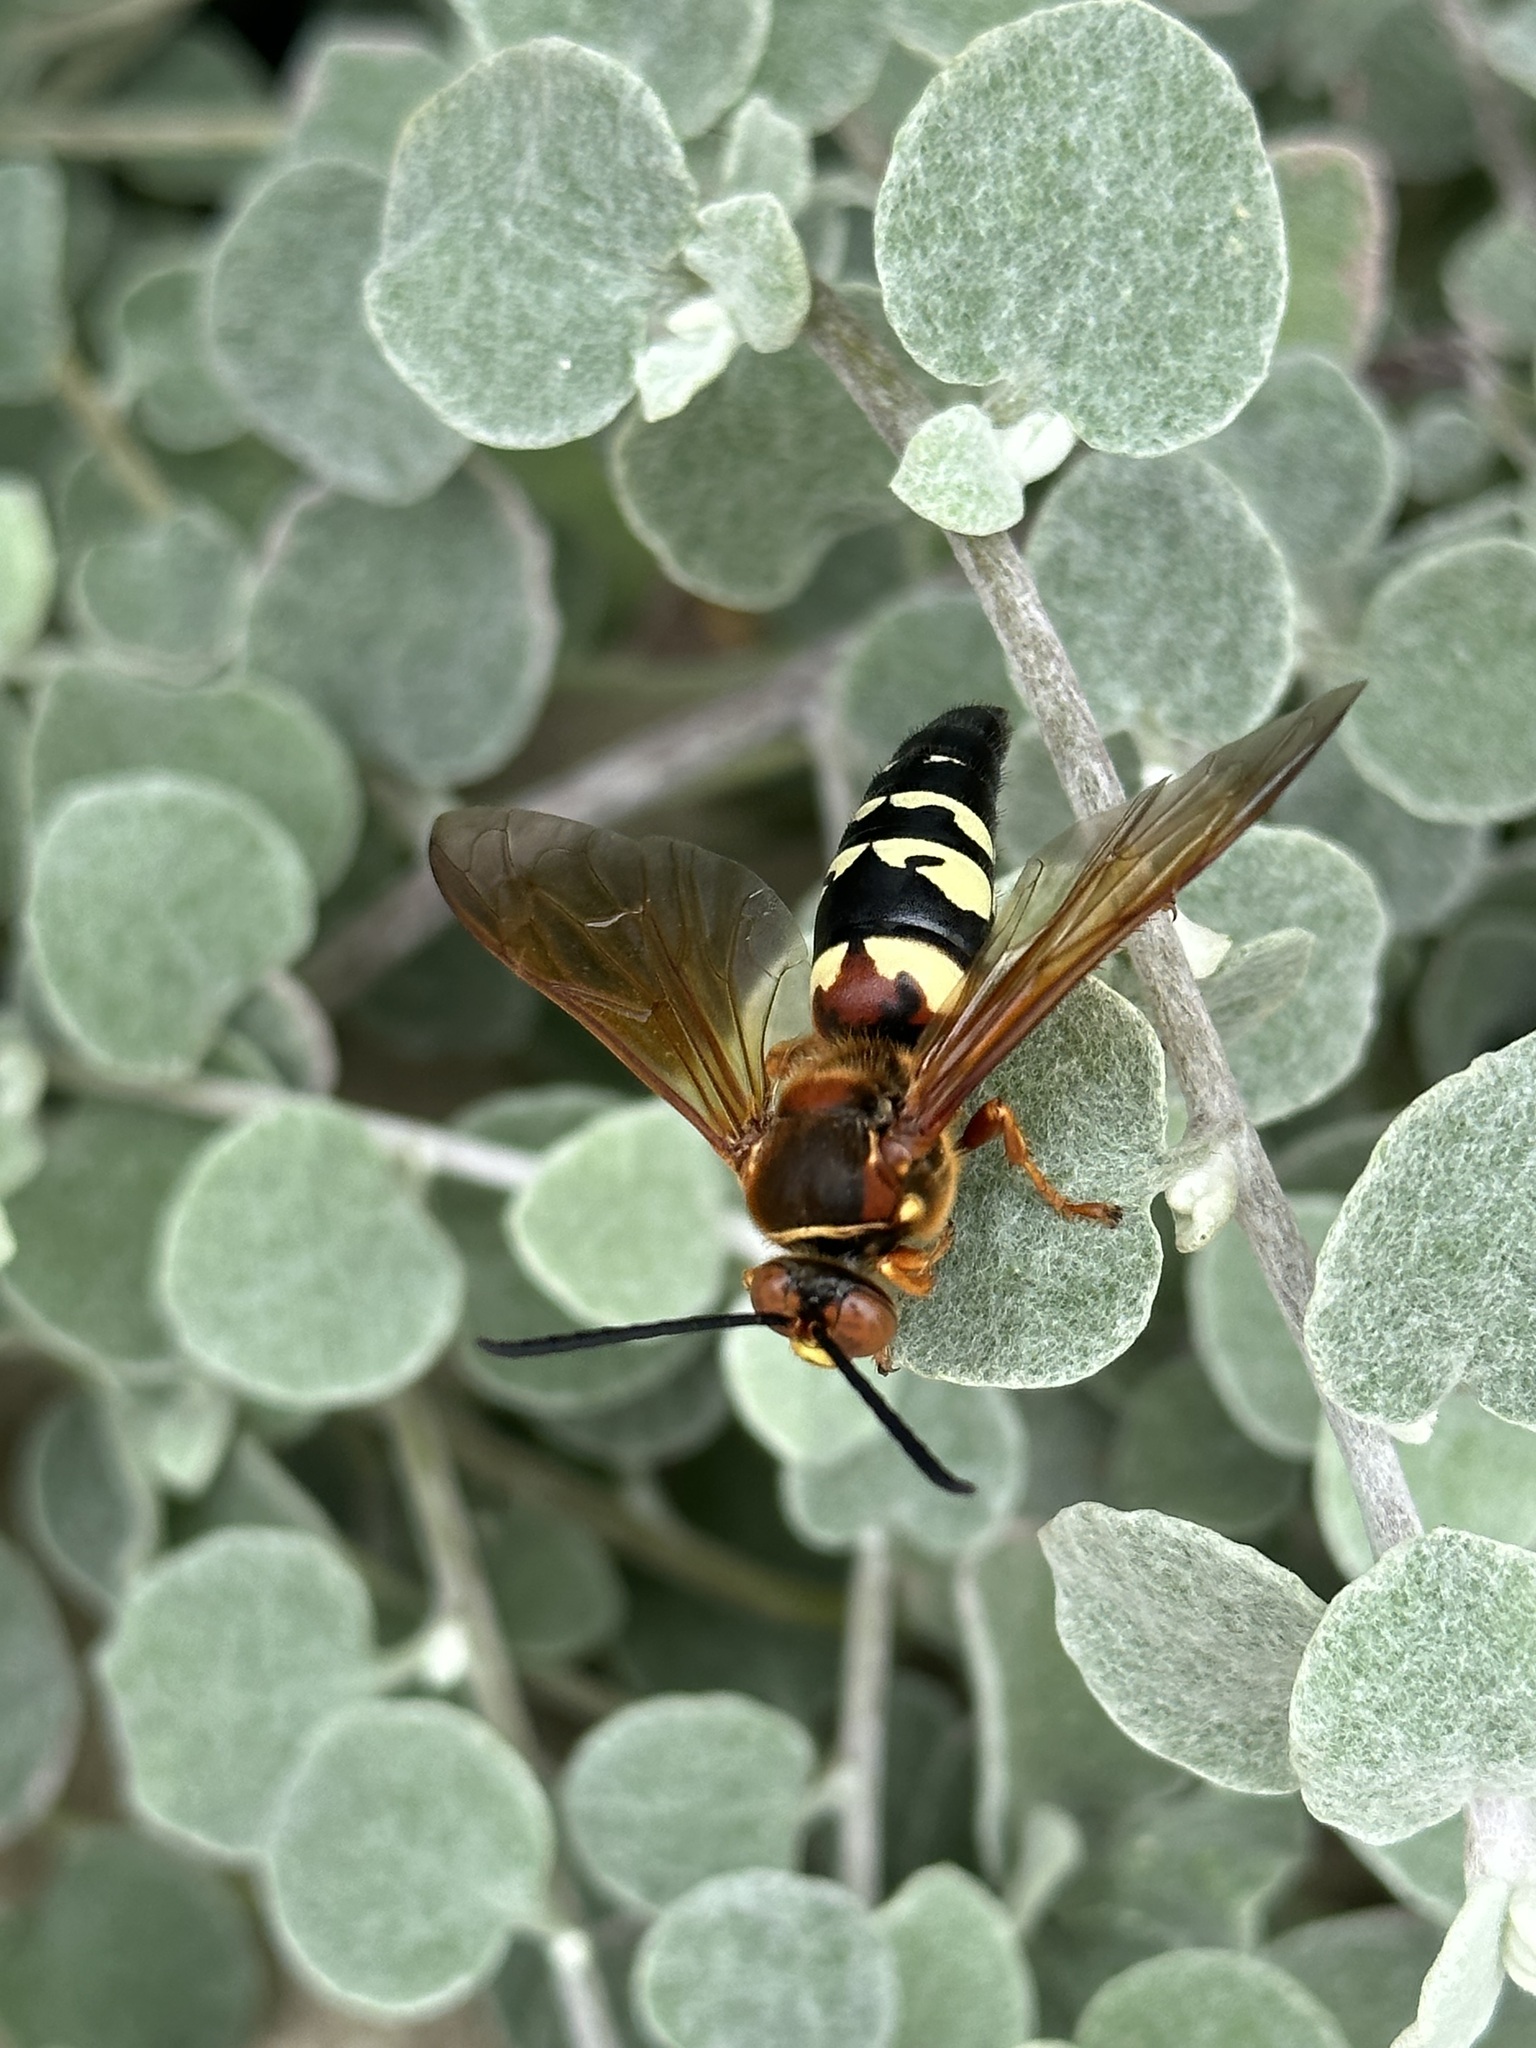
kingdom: Animalia
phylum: Arthropoda
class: Insecta
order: Hymenoptera
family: Crabronidae
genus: Sphecius
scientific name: Sphecius speciosus
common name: Cicada killer
